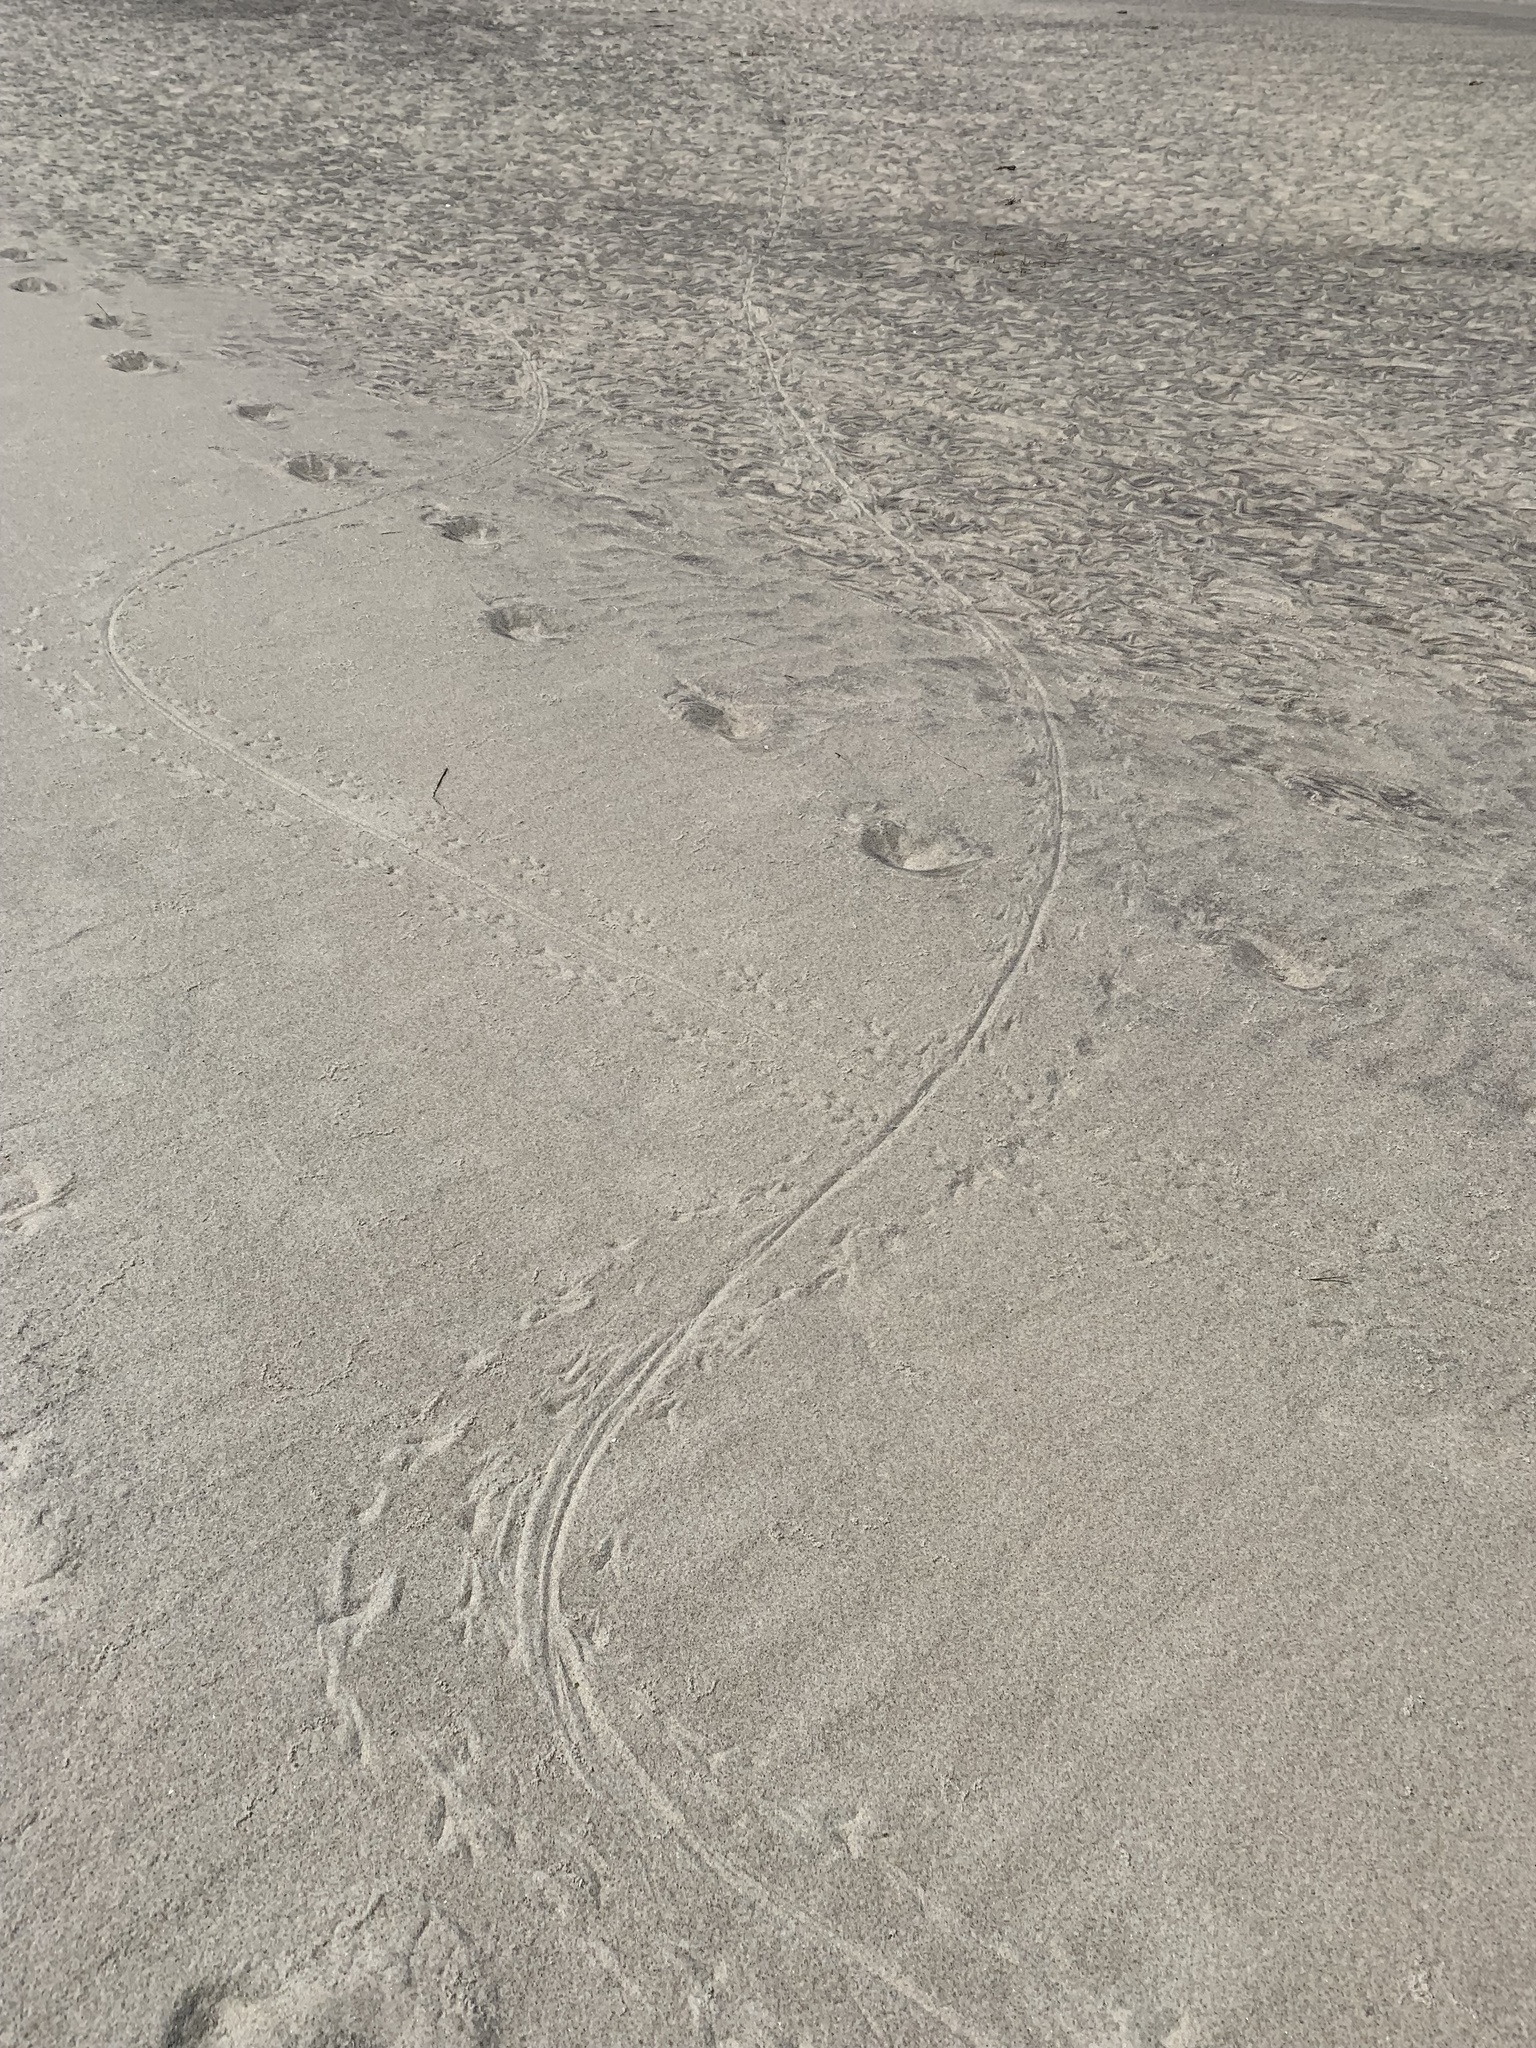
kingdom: Animalia
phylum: Arthropoda
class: Merostomata
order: Xiphosurida
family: Limulidae
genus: Limulus
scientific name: Limulus polyphemus
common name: Horseshoe crab
